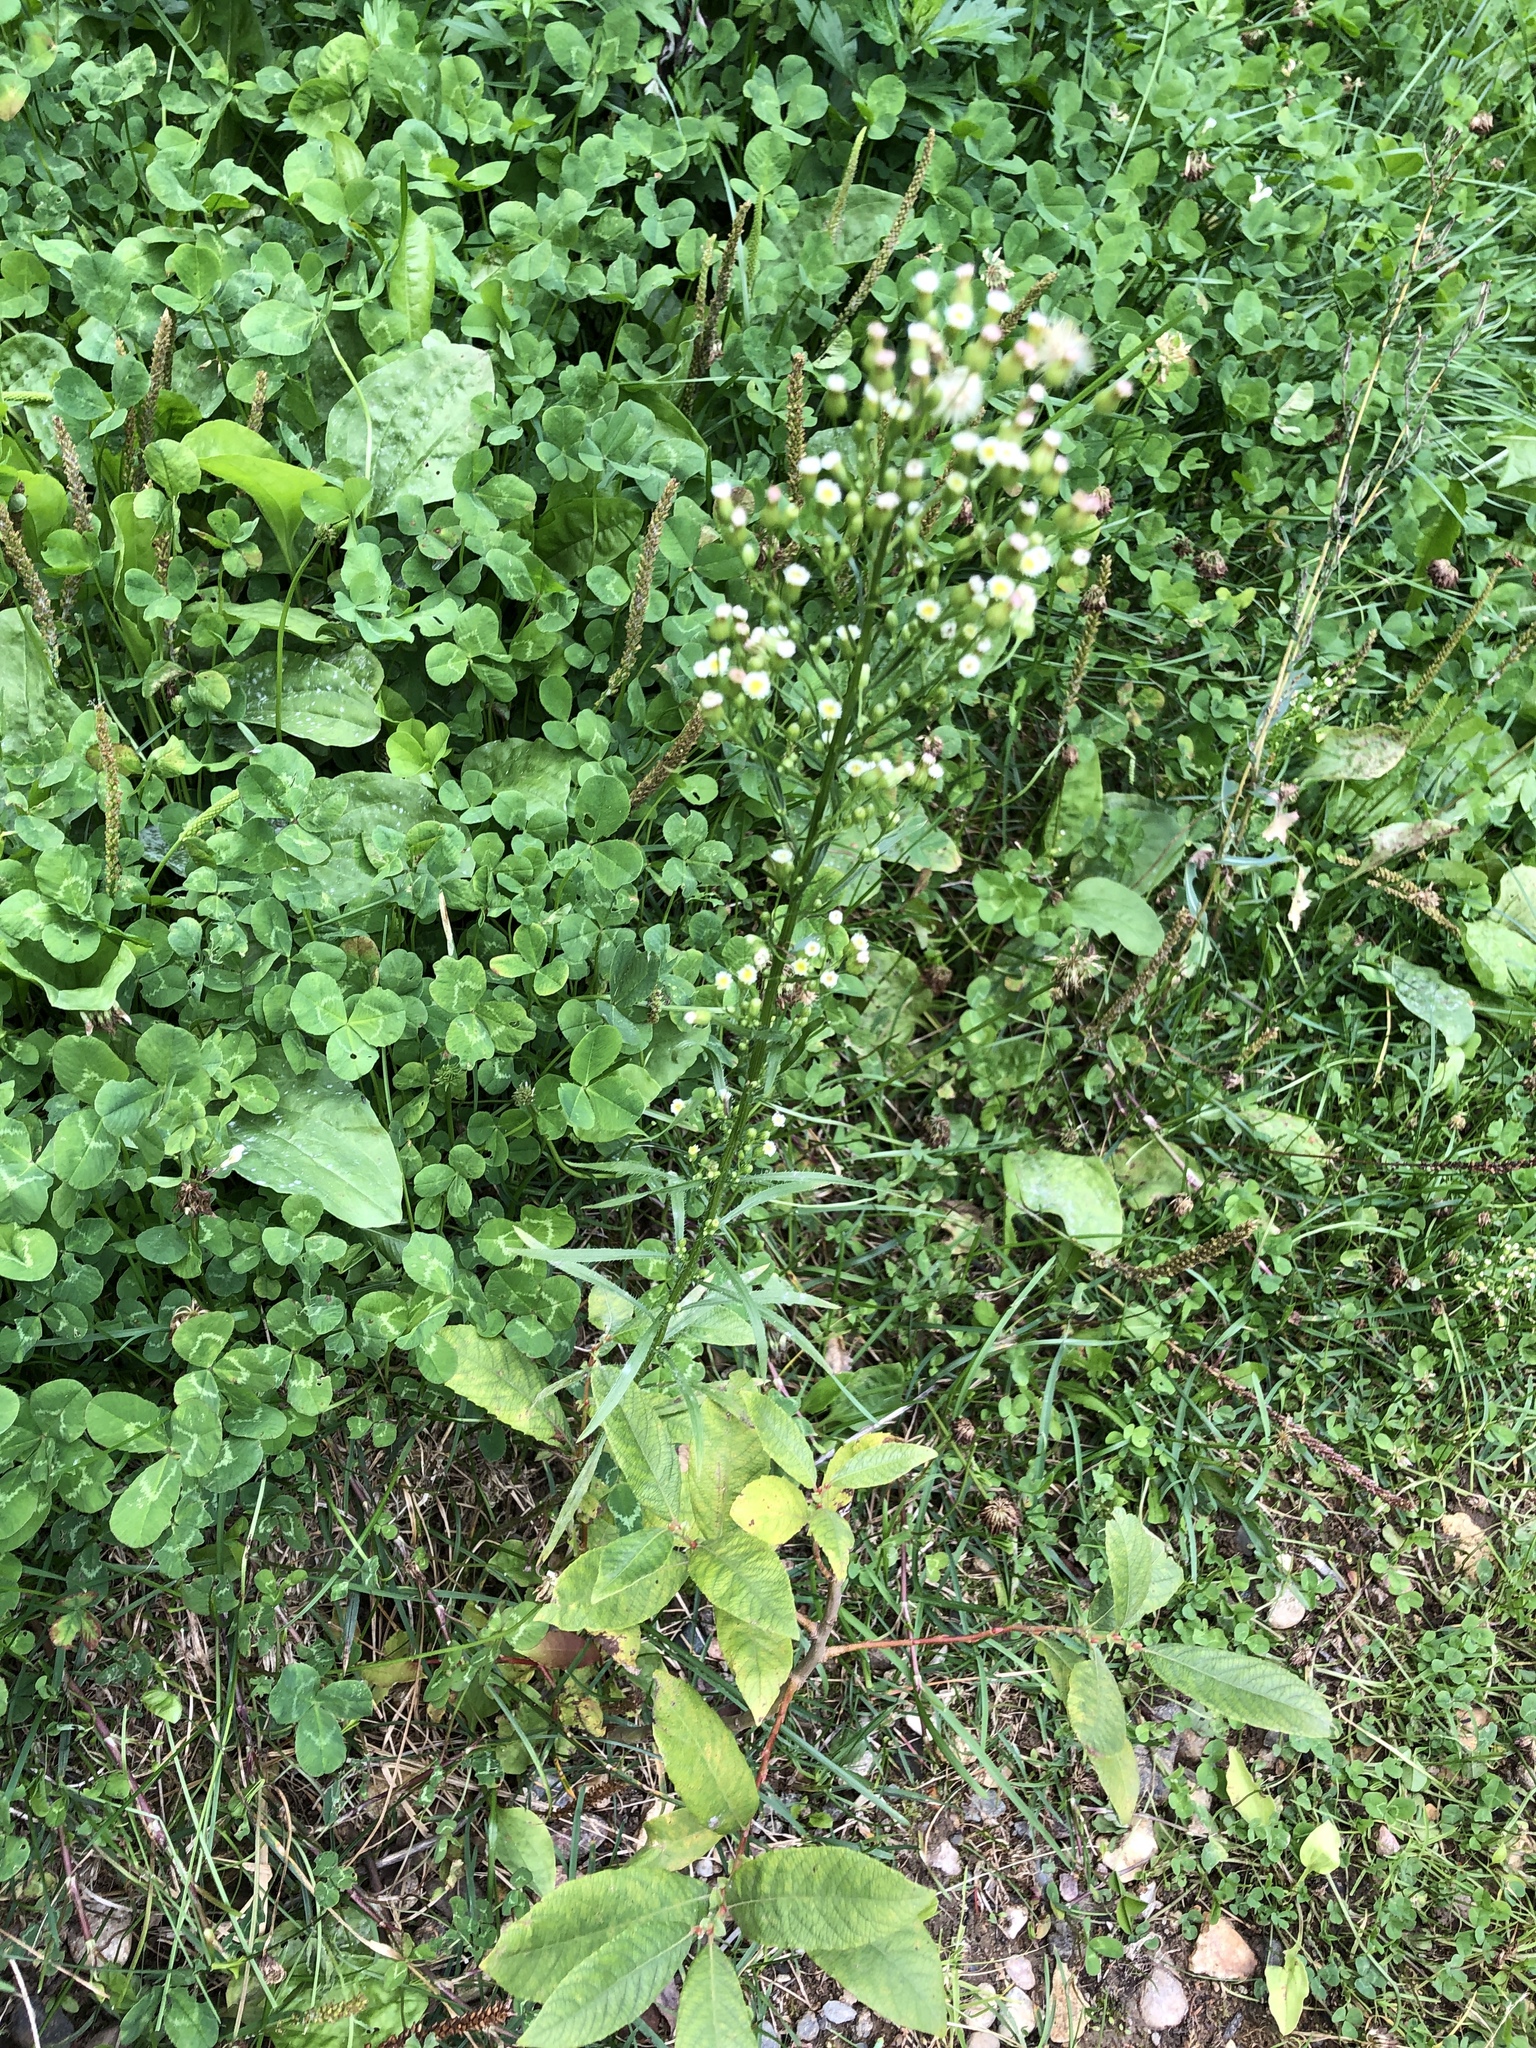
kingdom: Plantae
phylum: Tracheophyta
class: Magnoliopsida
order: Asterales
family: Asteraceae
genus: Erigeron
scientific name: Erigeron canadensis
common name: Canadian fleabane
